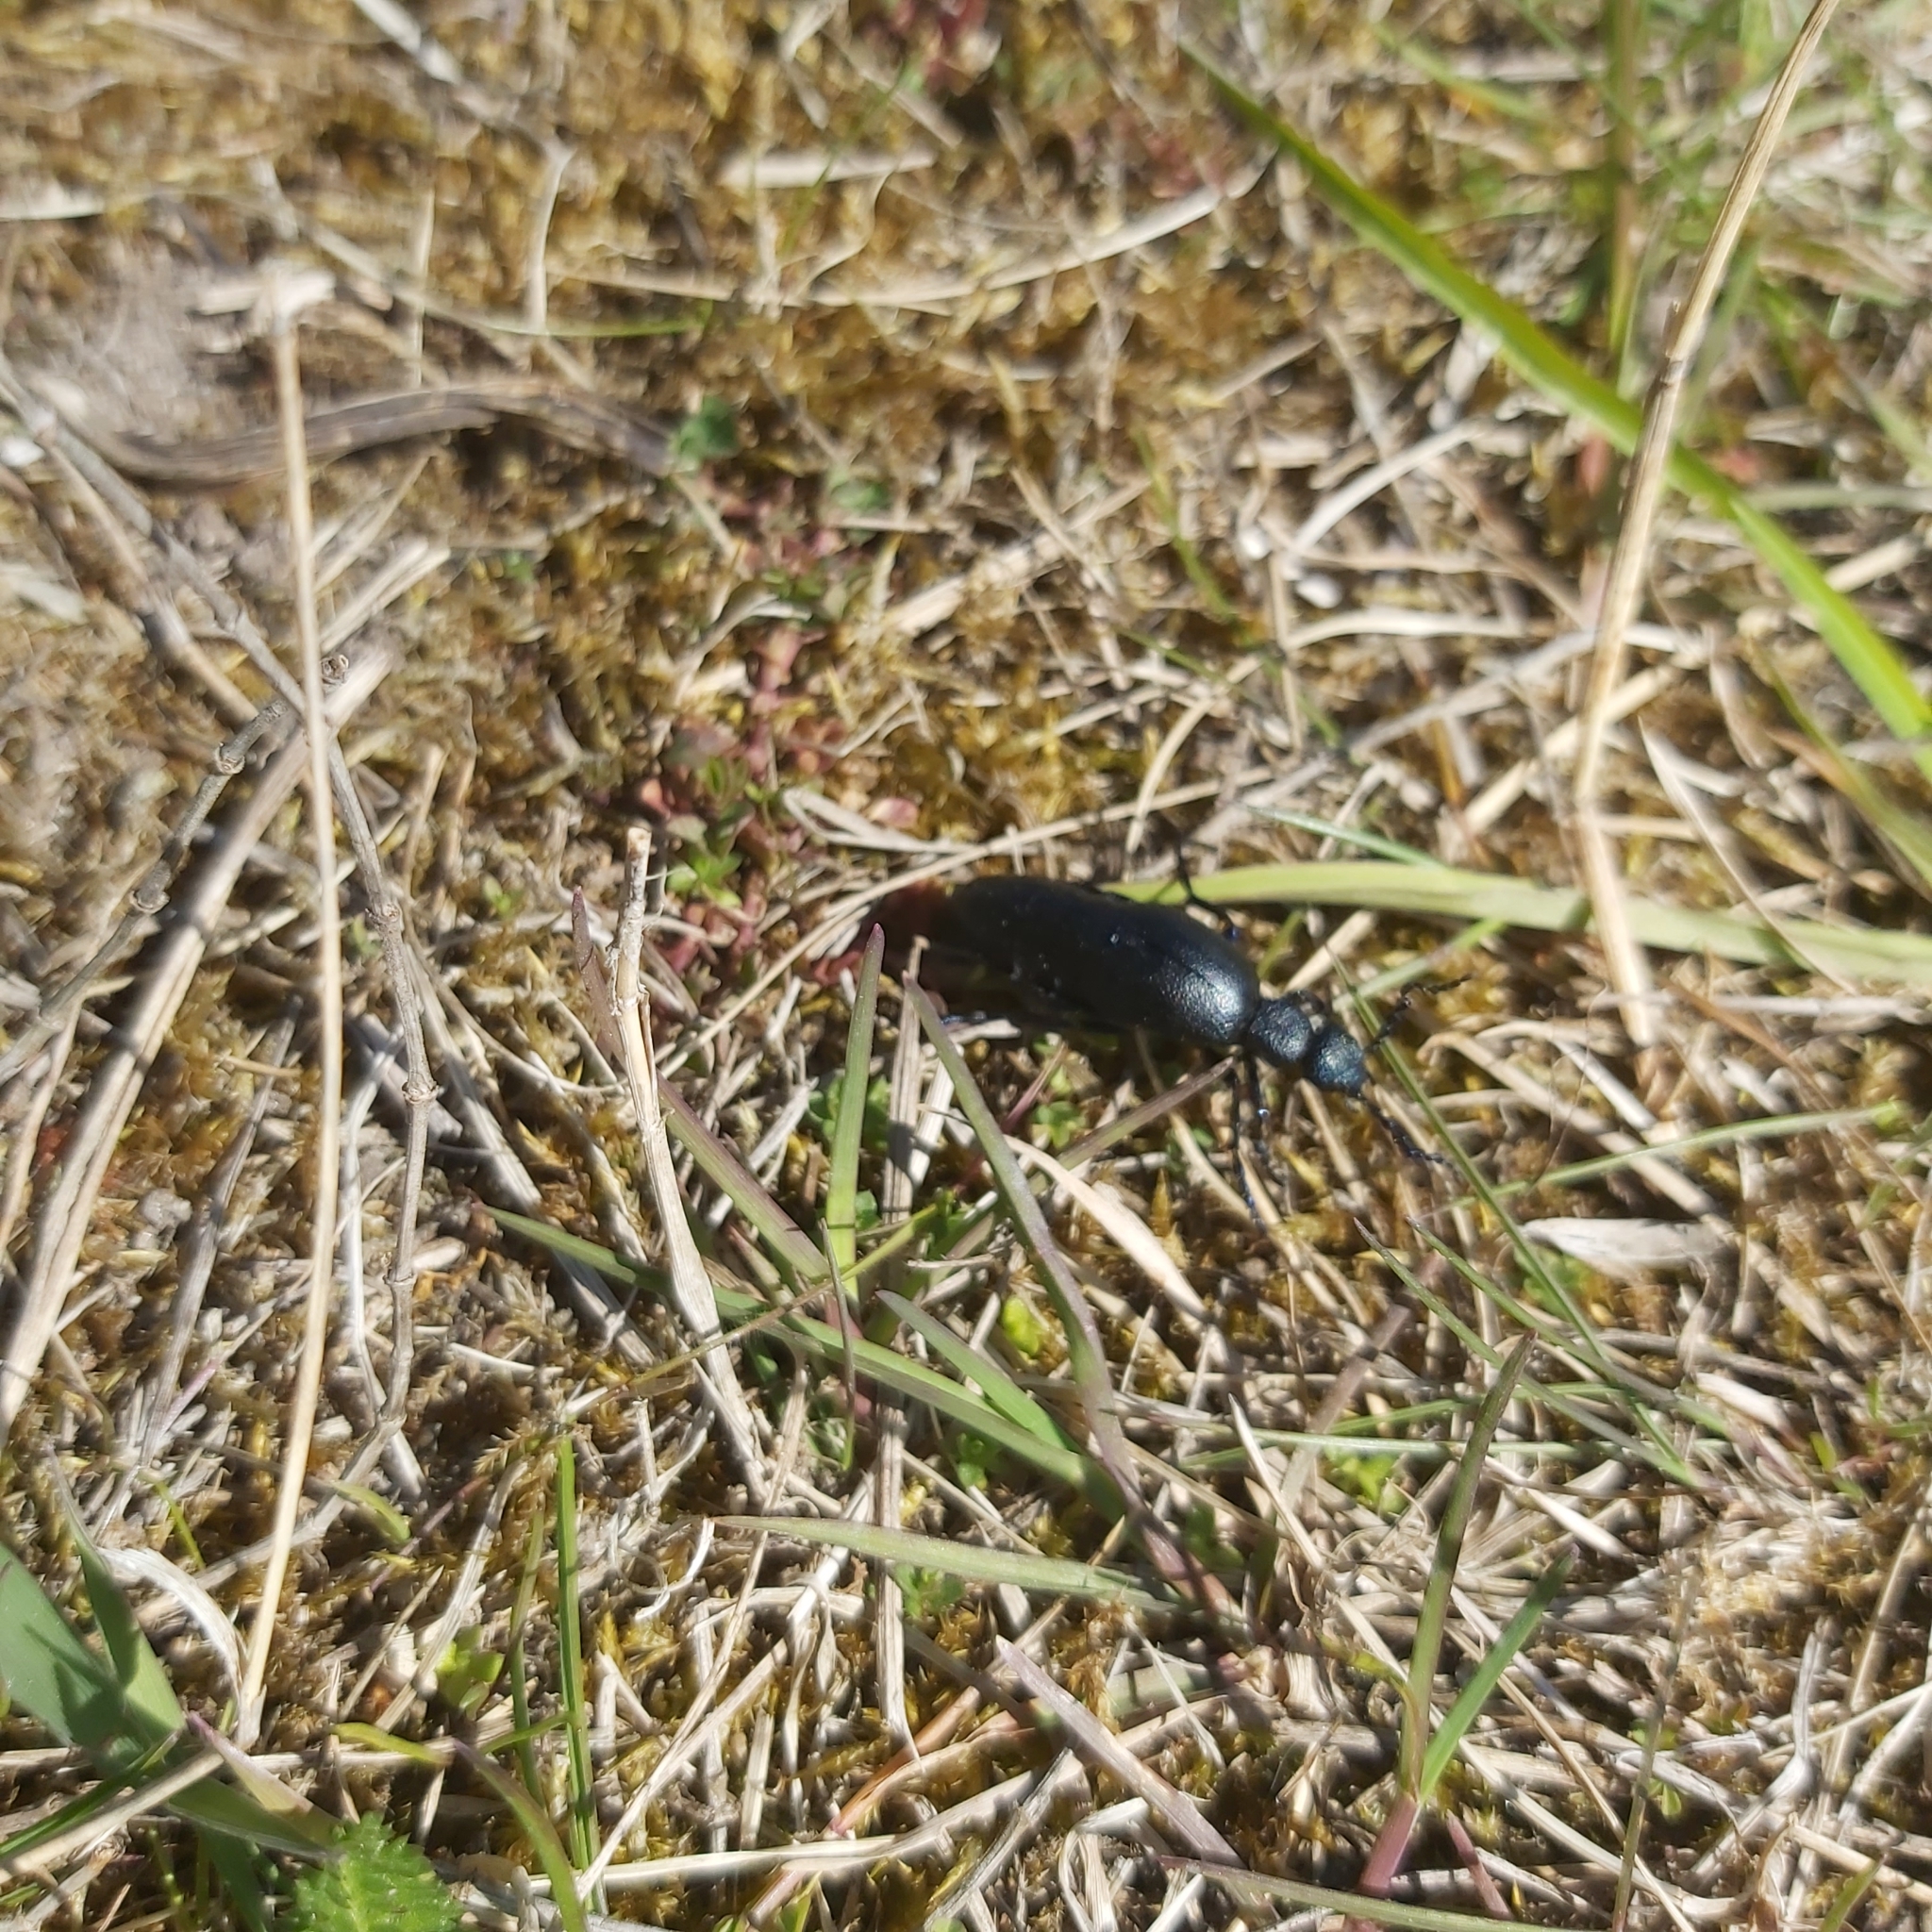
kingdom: Animalia
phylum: Arthropoda
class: Insecta
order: Coleoptera
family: Meloidae
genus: Meloe
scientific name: Meloe proscarabaeus
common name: Black oil-beetle
